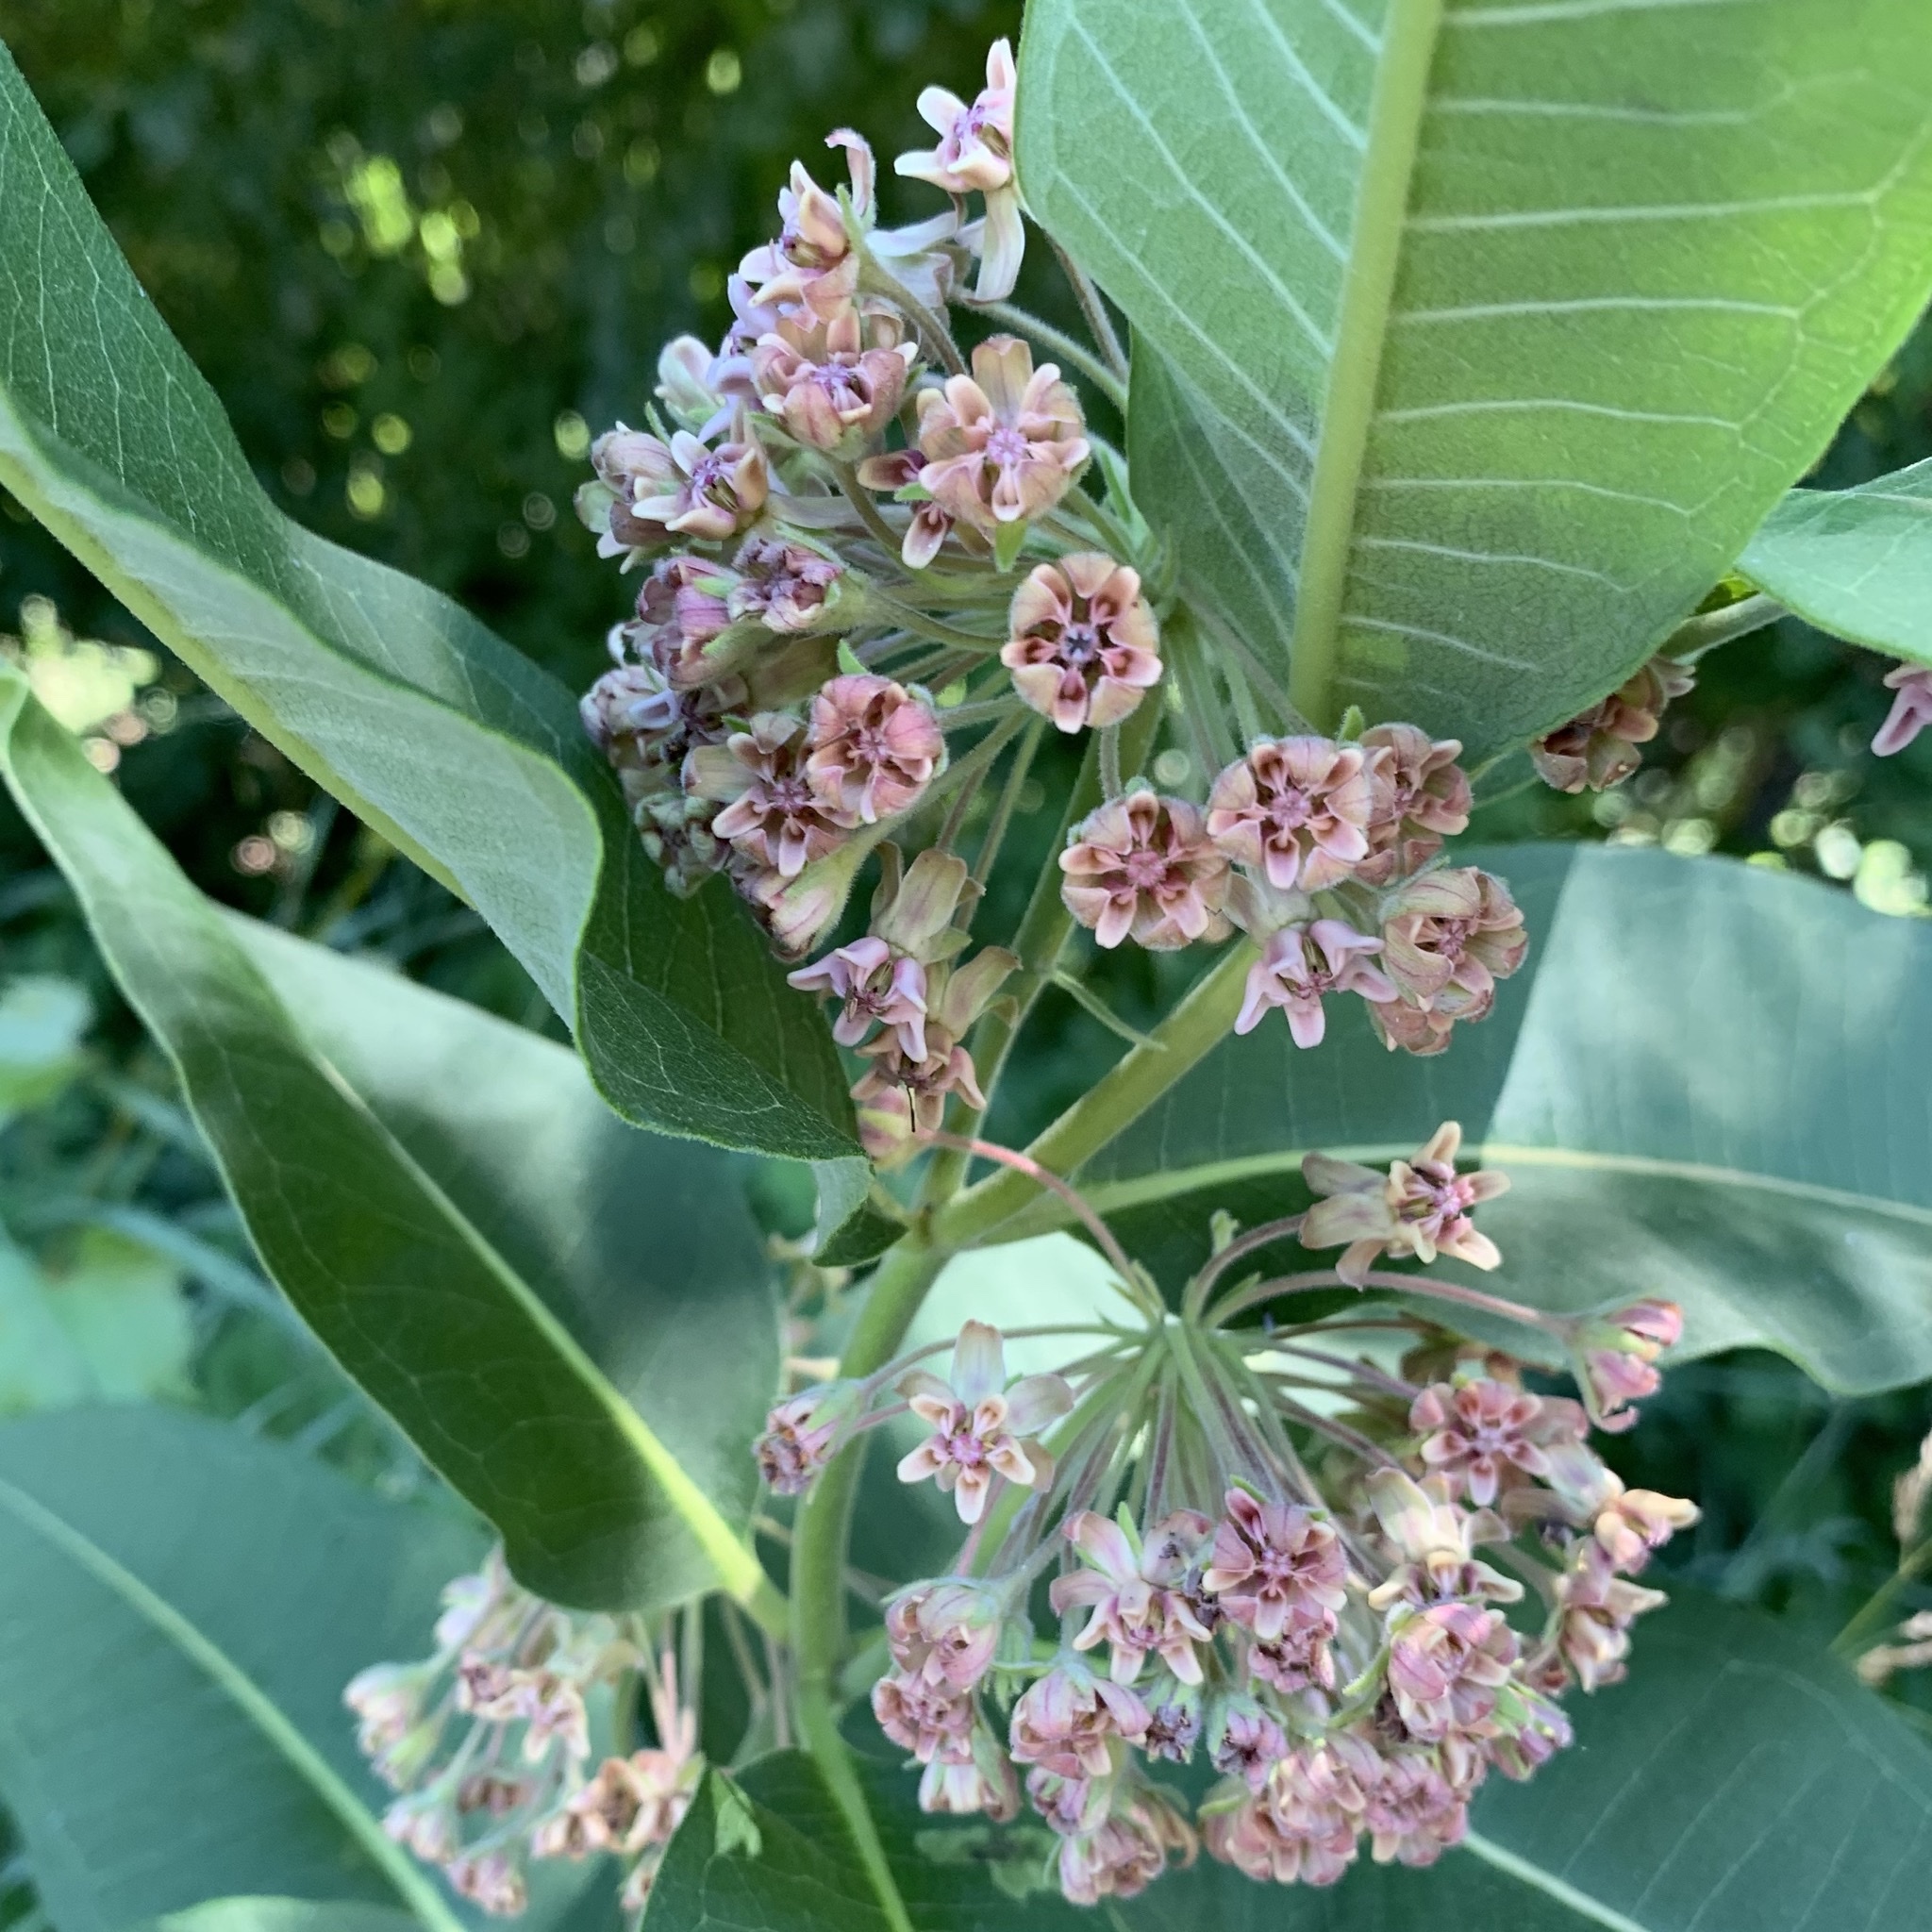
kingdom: Plantae
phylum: Tracheophyta
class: Magnoliopsida
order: Gentianales
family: Apocynaceae
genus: Asclepias
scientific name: Asclepias syriaca
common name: Common milkweed
